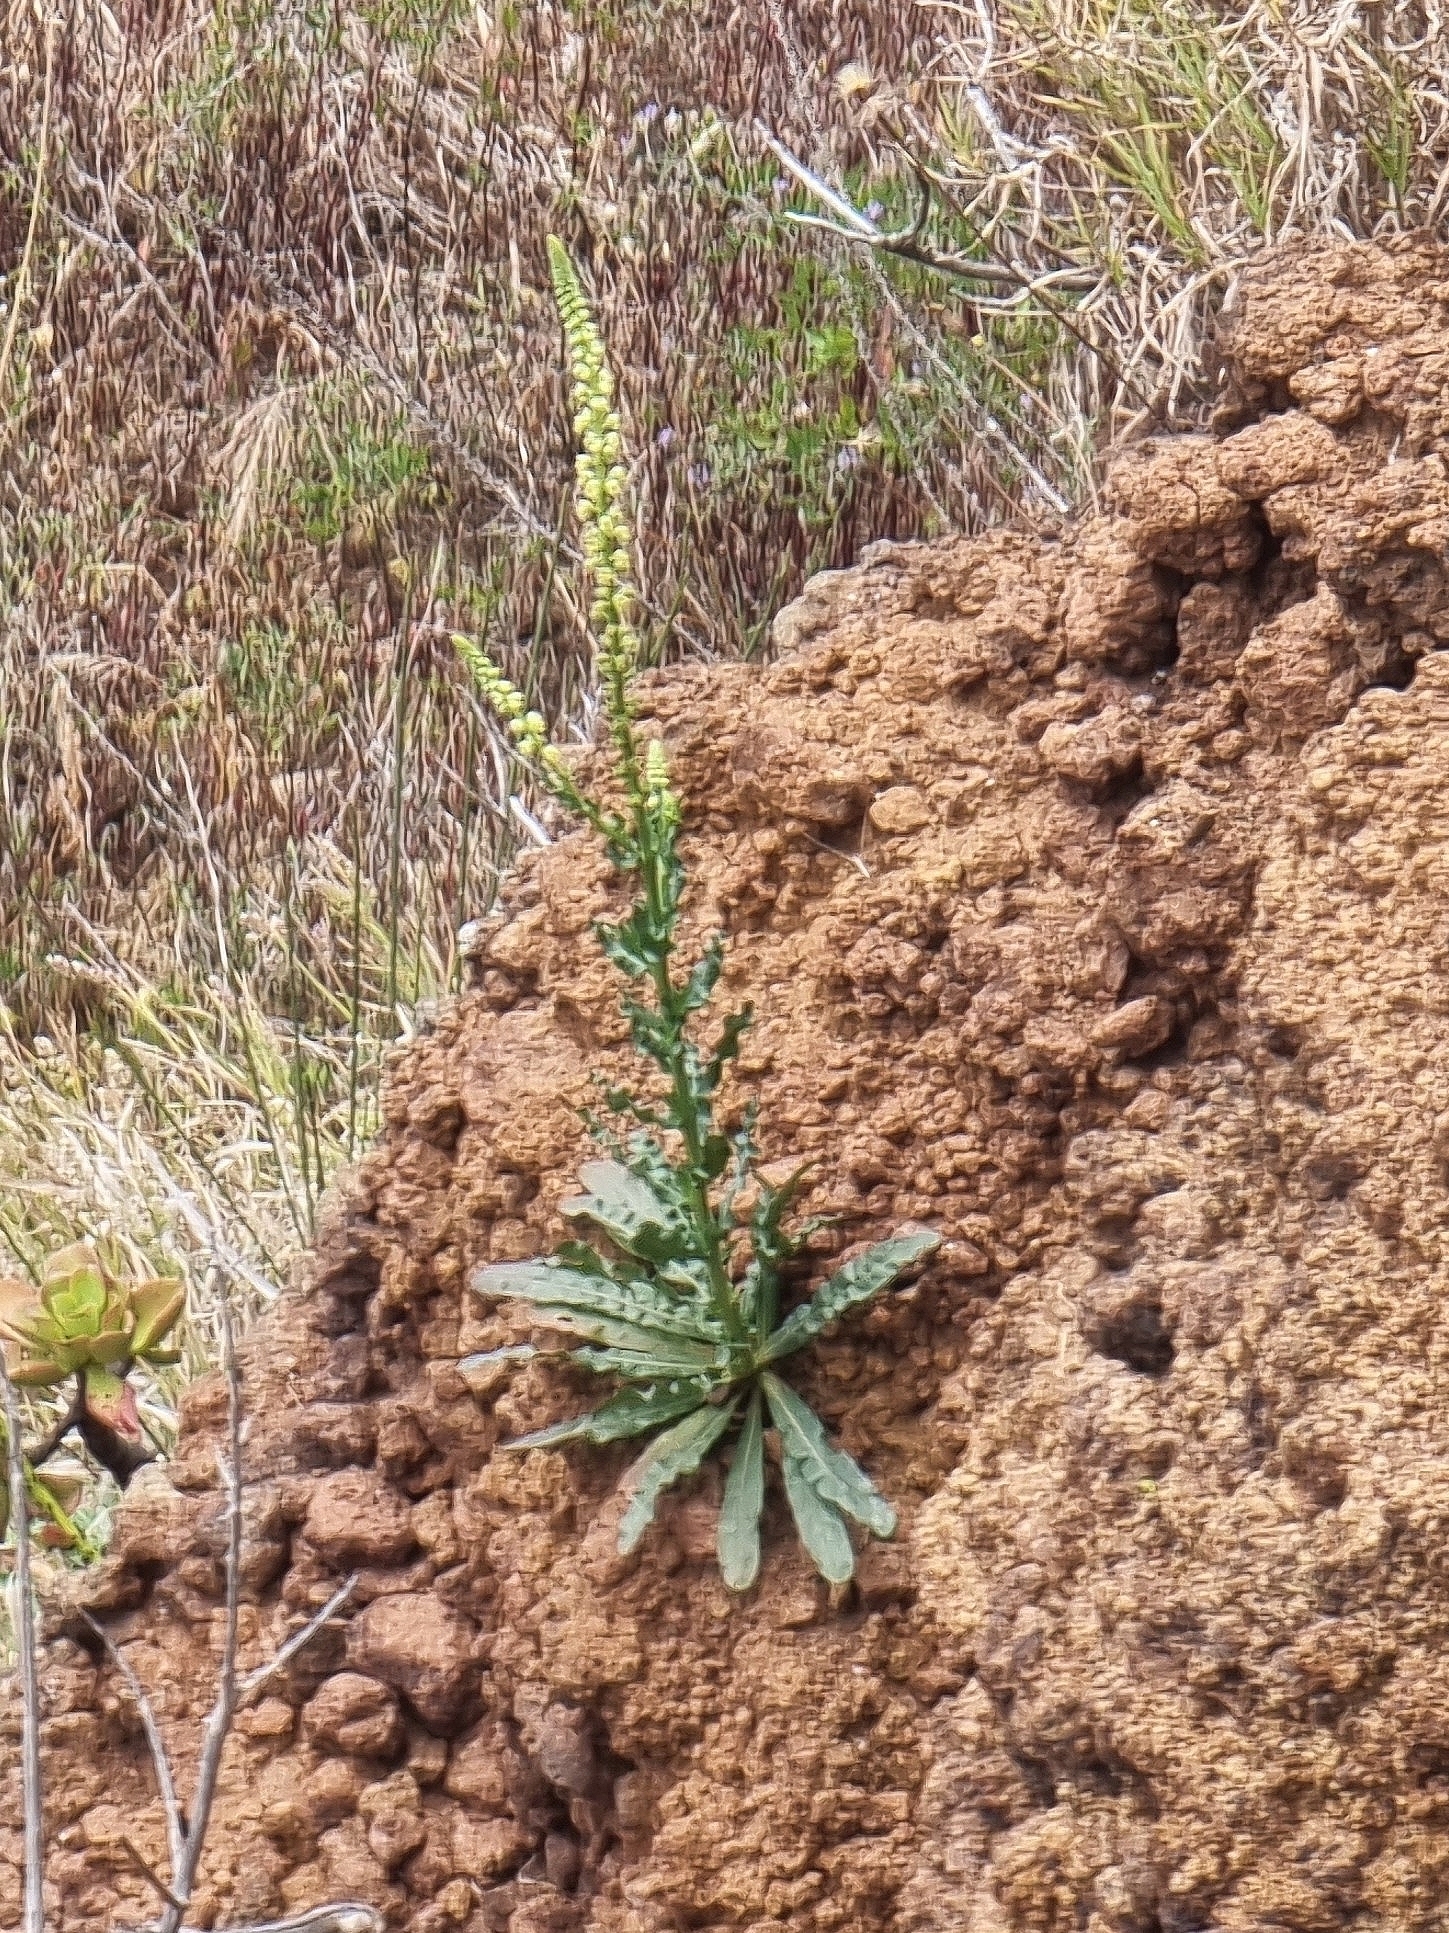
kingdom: Plantae
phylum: Tracheophyta
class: Magnoliopsida
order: Brassicales
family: Resedaceae
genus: Reseda
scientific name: Reseda luteola
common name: Weld
